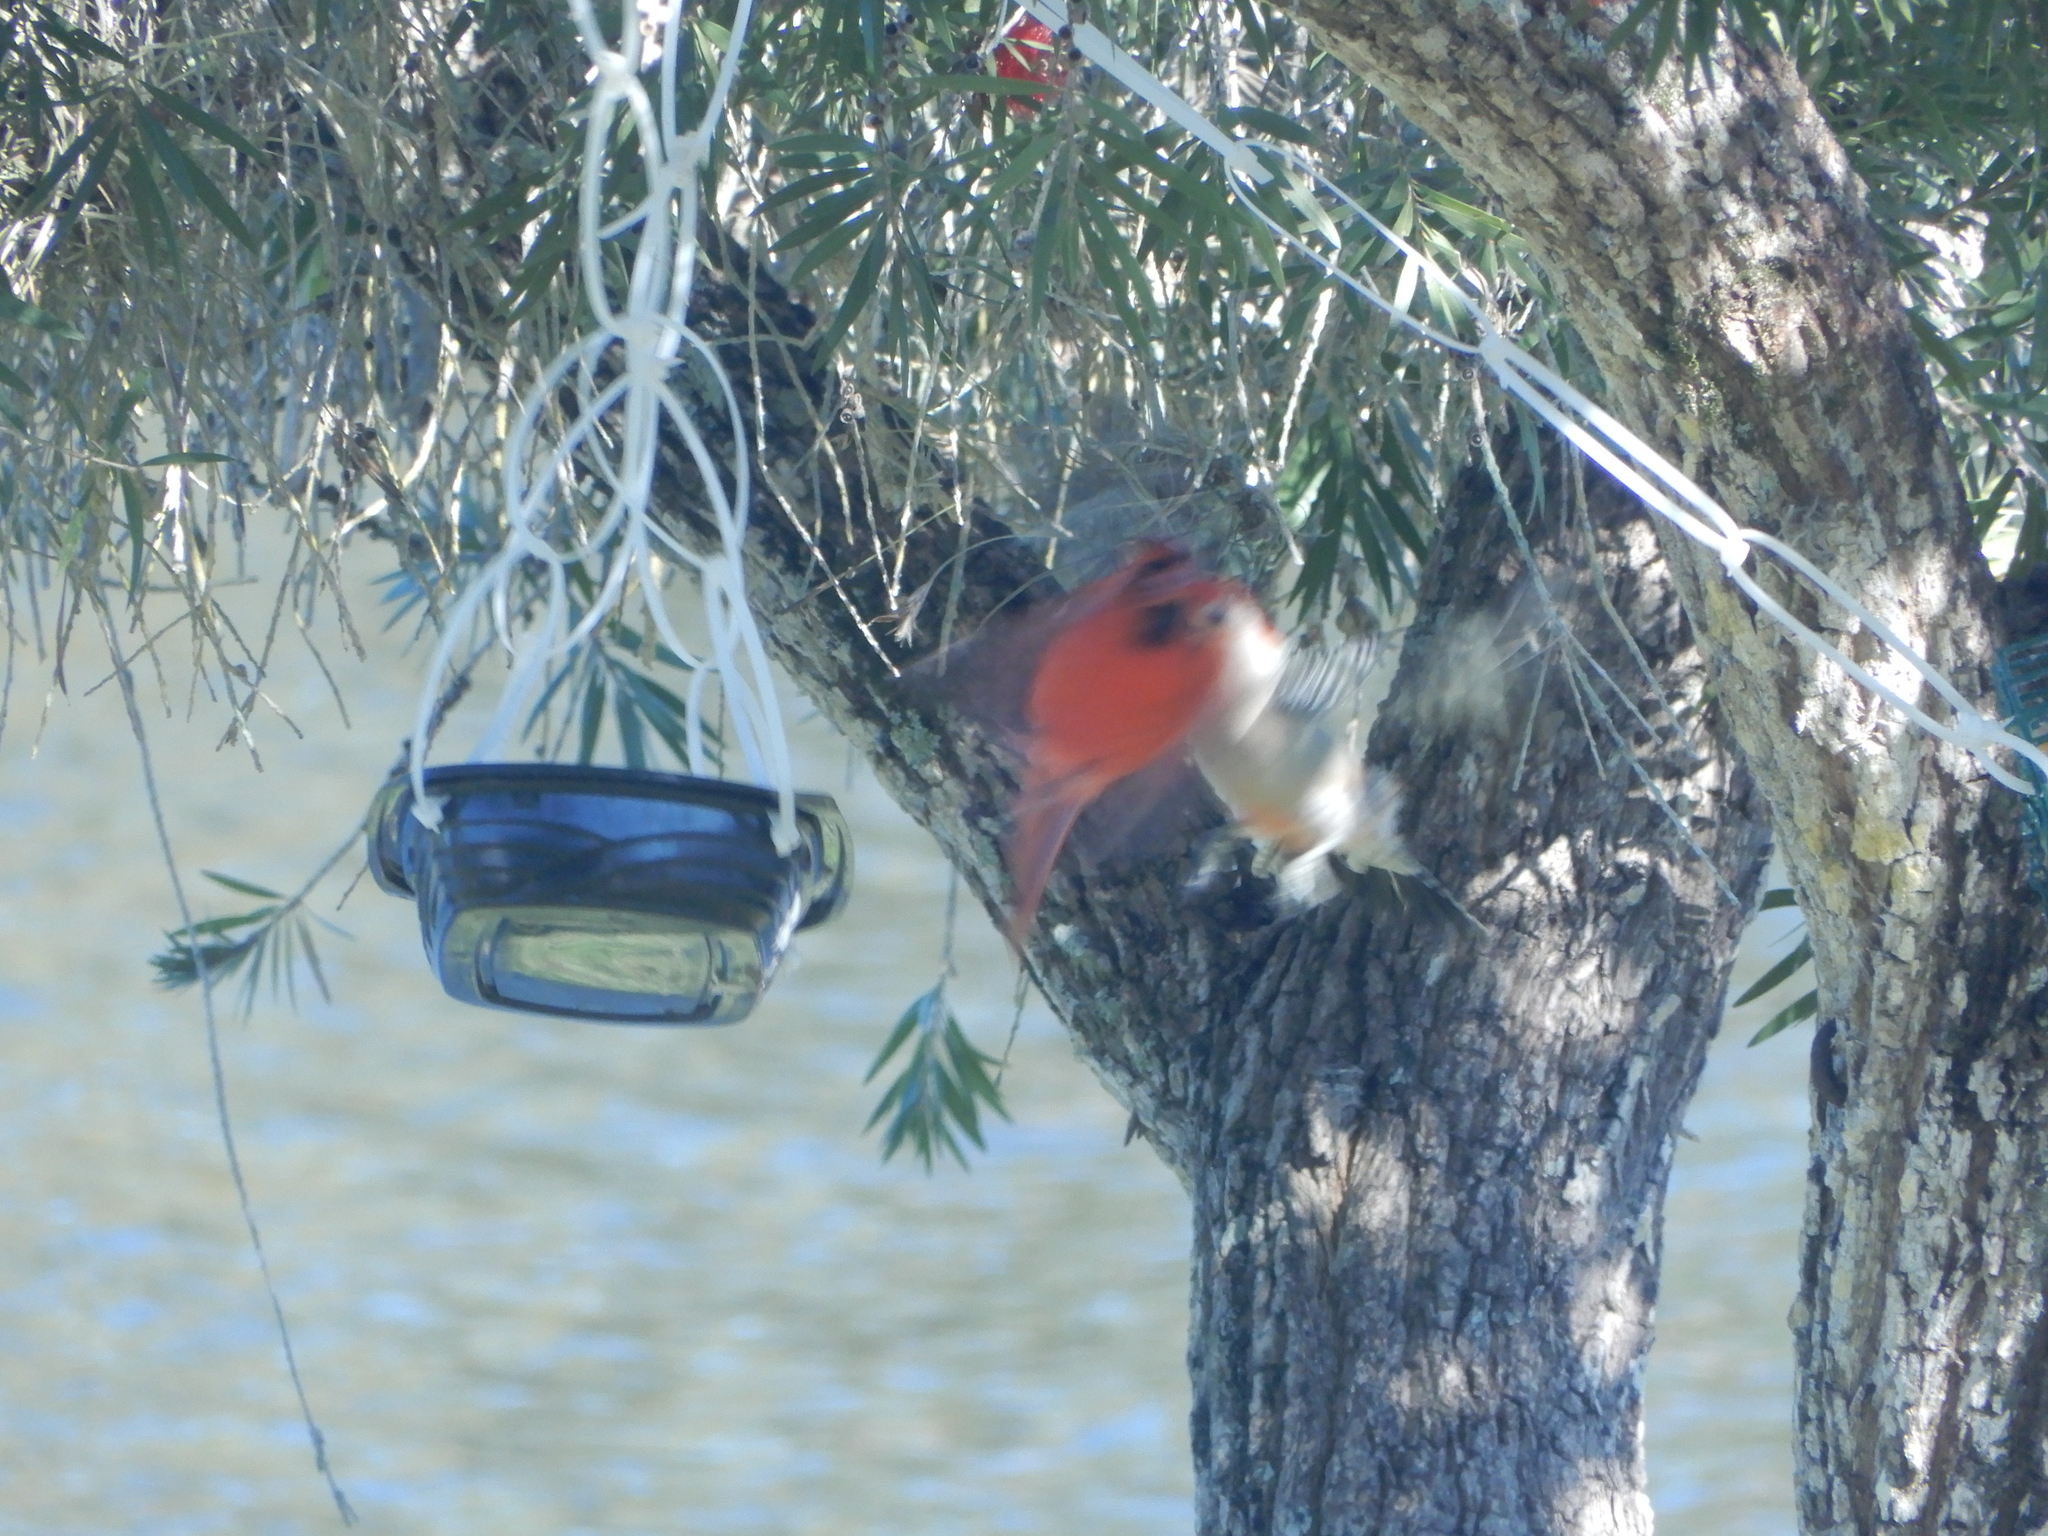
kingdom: Animalia
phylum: Chordata
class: Aves
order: Passeriformes
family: Cardinalidae
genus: Cardinalis
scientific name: Cardinalis cardinalis
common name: Northern cardinal
